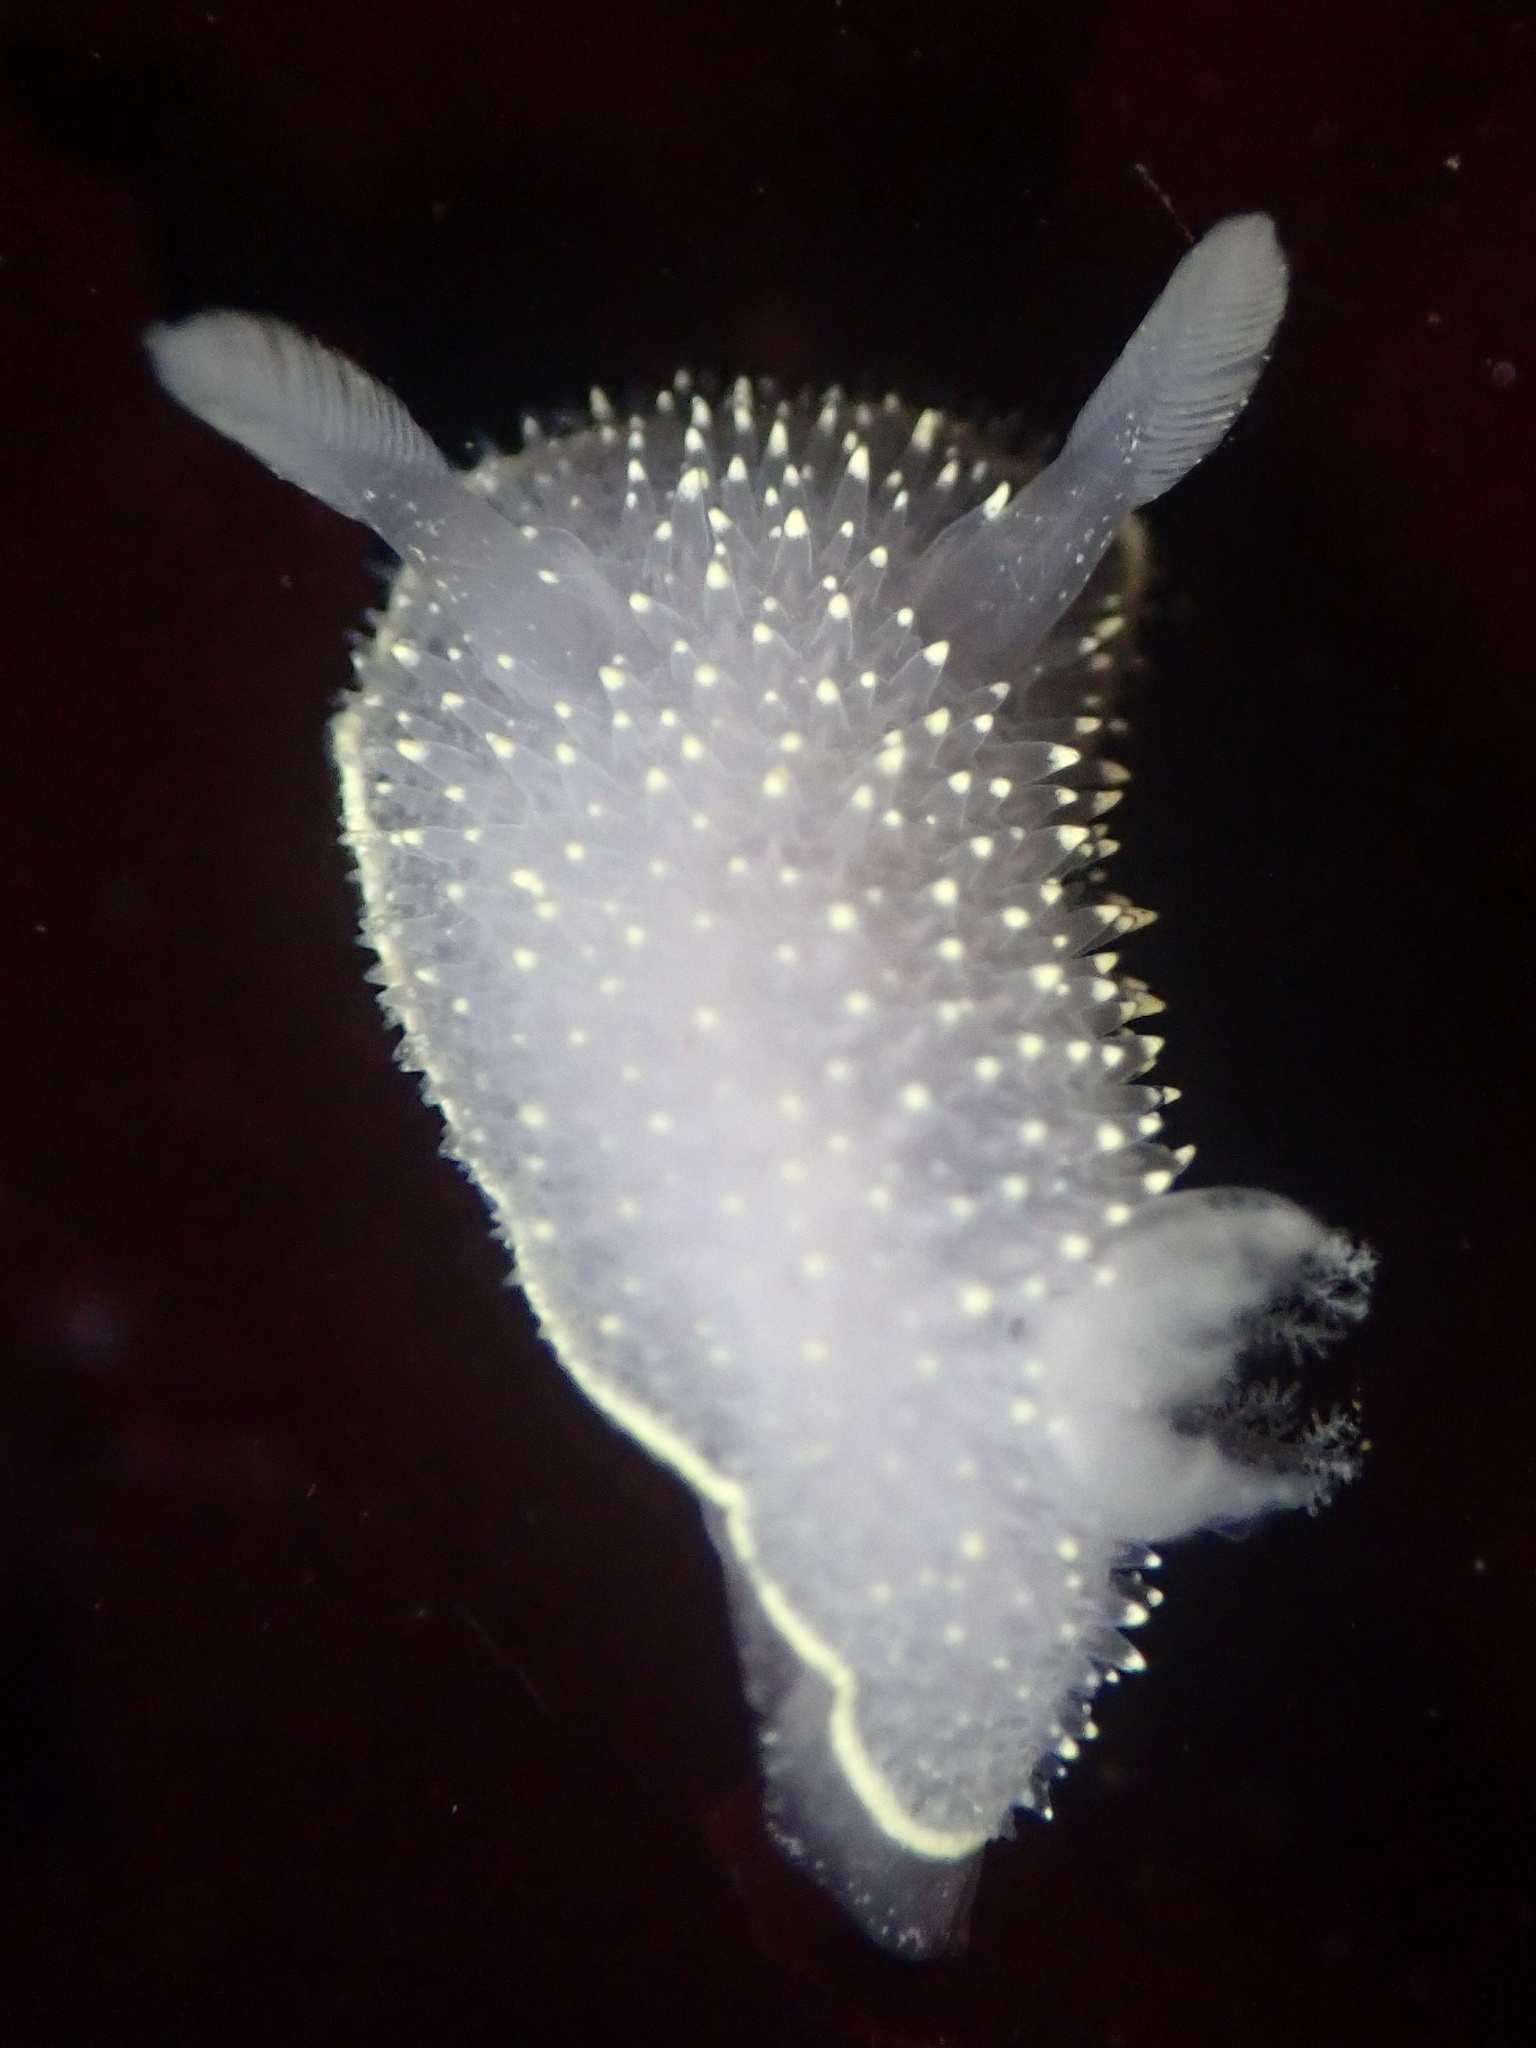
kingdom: Animalia
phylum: Mollusca
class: Gastropoda
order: Nudibranchia
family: Onchidorididae
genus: Acanthodoris
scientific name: Acanthodoris hudsoni
